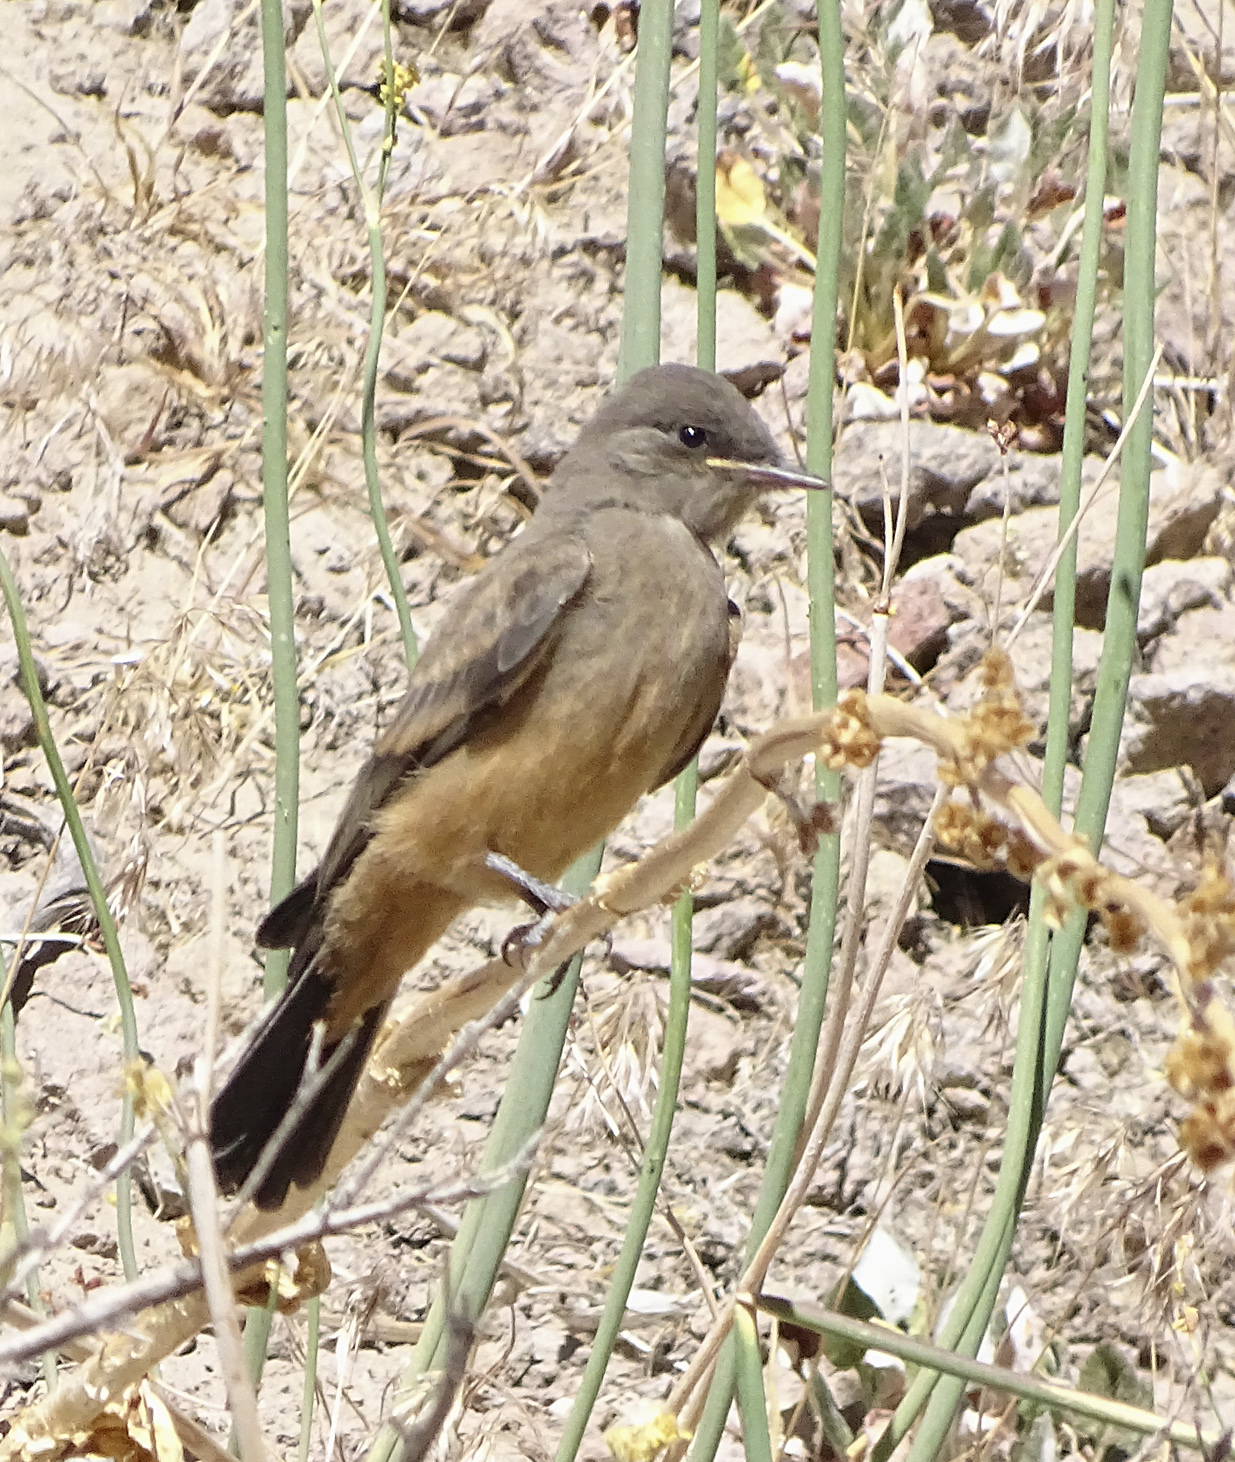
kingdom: Animalia
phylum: Chordata
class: Aves
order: Passeriformes
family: Tyrannidae
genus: Sayornis
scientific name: Sayornis saya
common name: Say's phoebe
